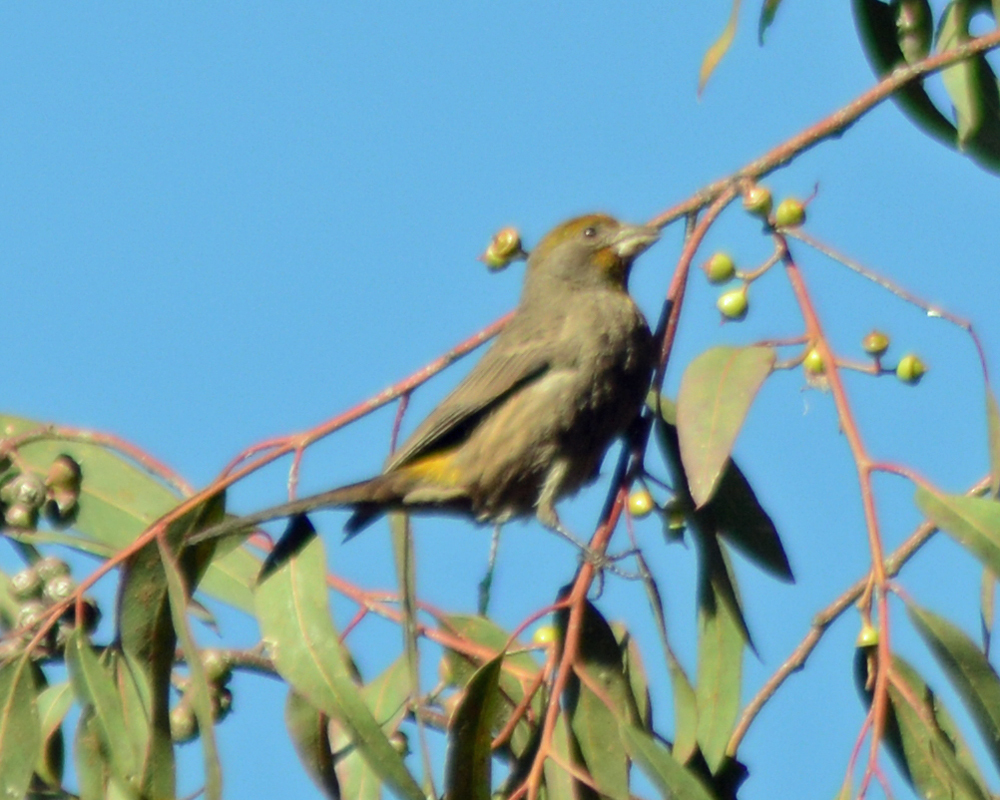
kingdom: Animalia
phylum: Chordata
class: Aves
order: Passeriformes
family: Fringillidae
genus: Haemorhous
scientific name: Haemorhous mexicanus
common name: House finch
